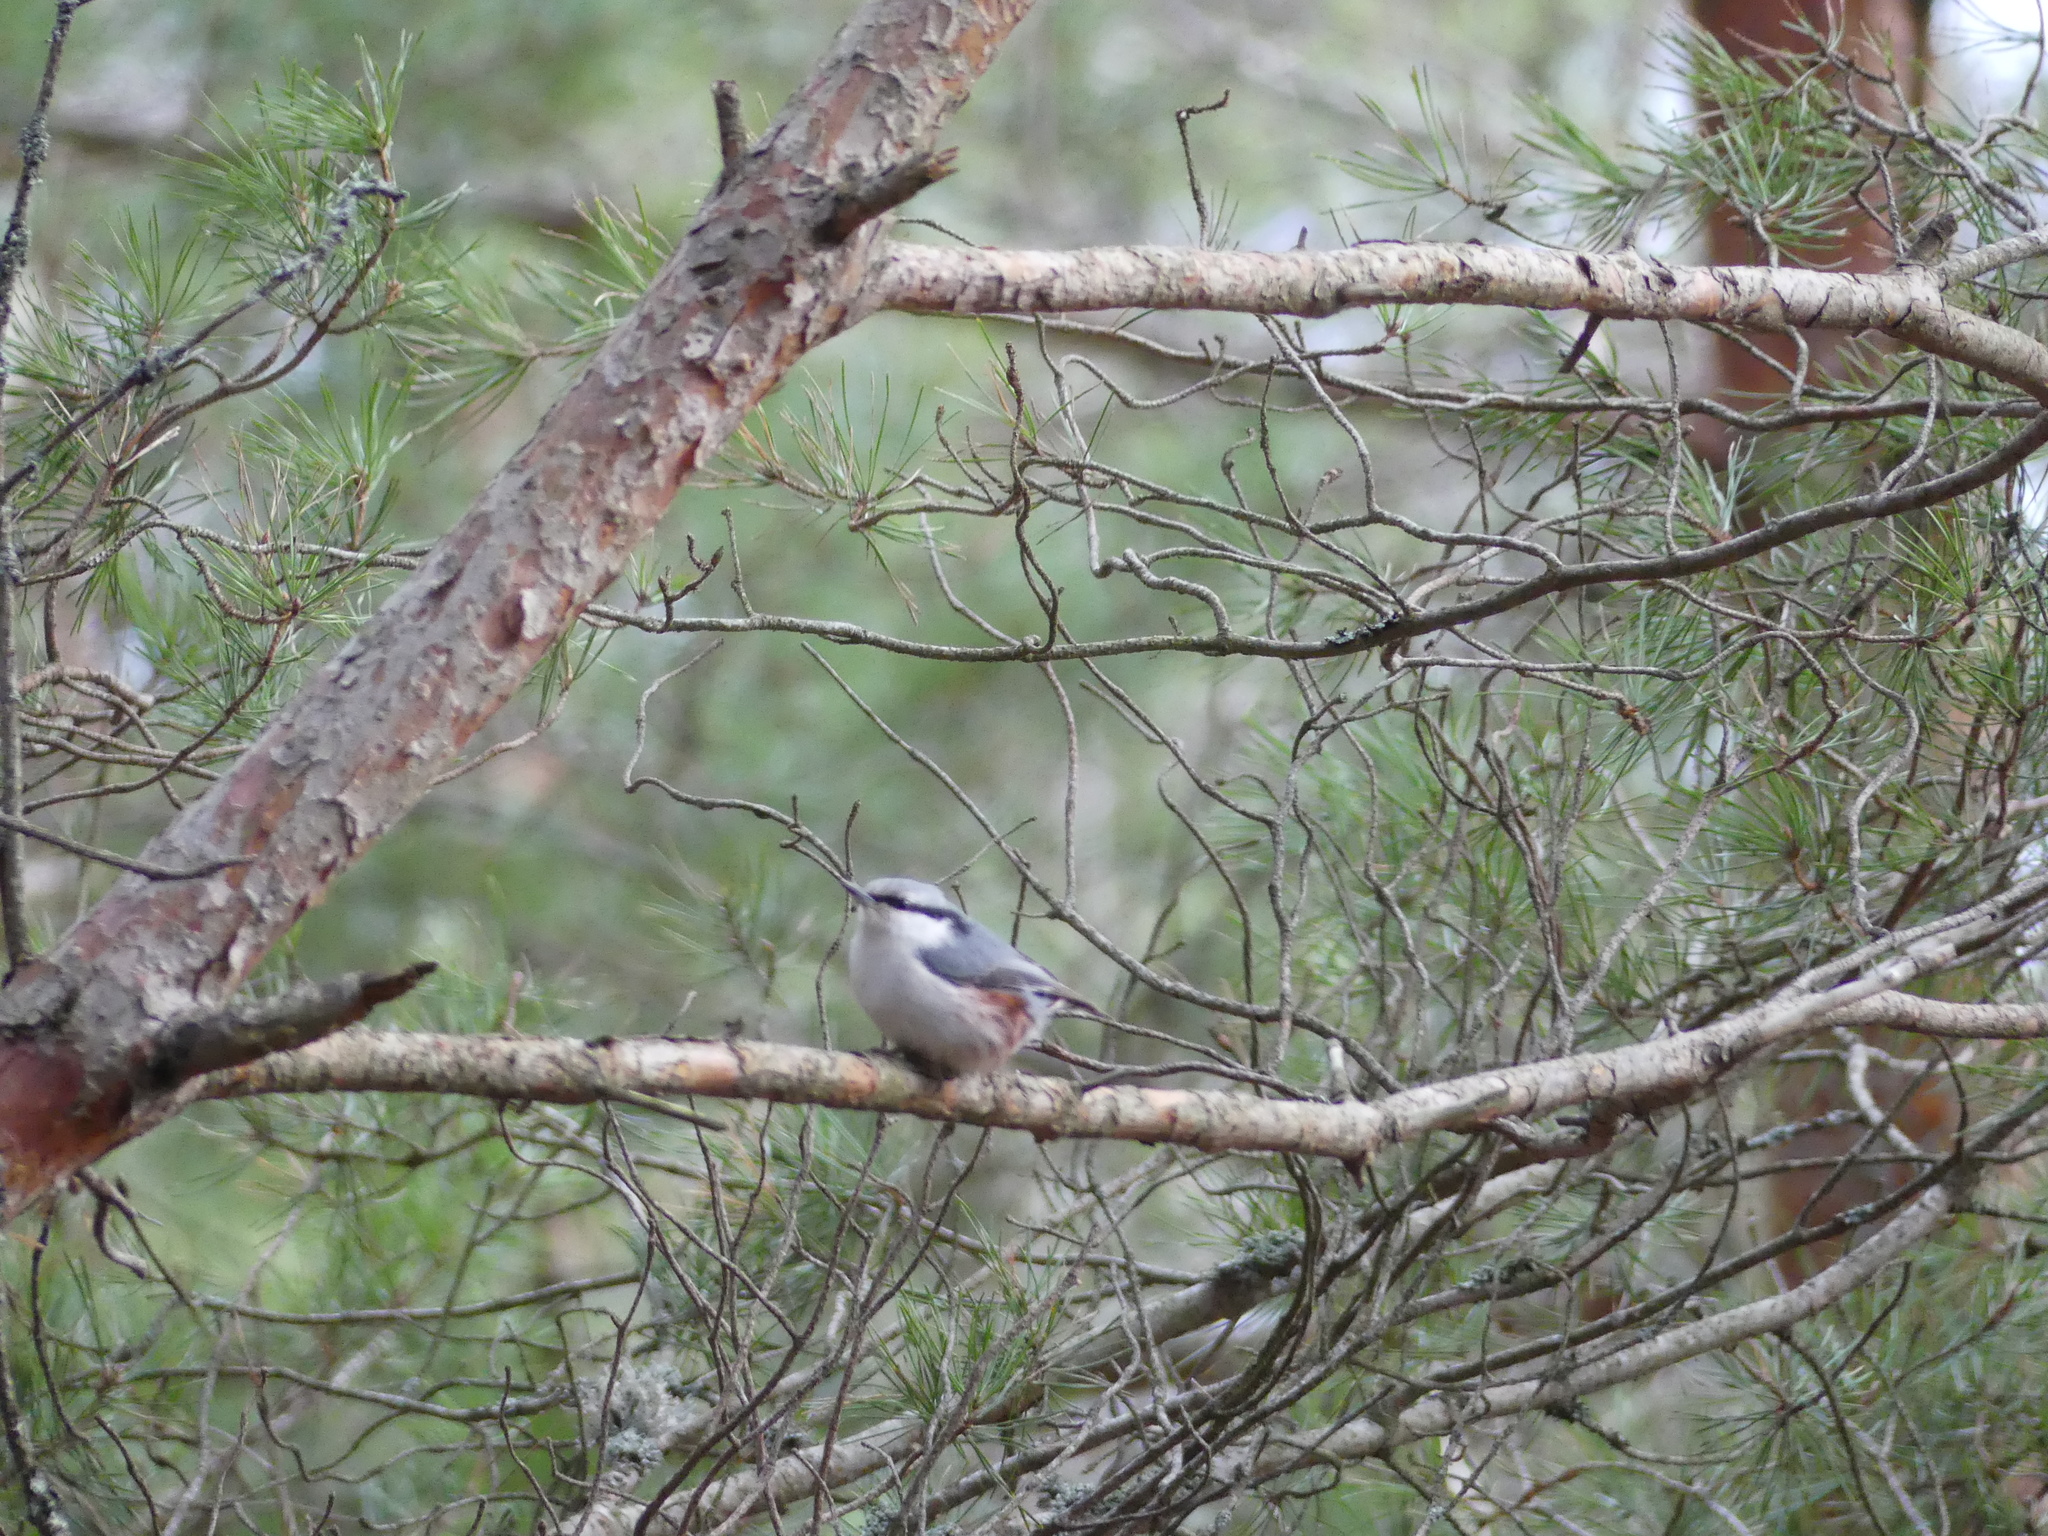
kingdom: Animalia
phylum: Chordata
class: Aves
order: Passeriformes
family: Sittidae
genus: Sitta
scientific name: Sitta europaea
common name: Eurasian nuthatch
